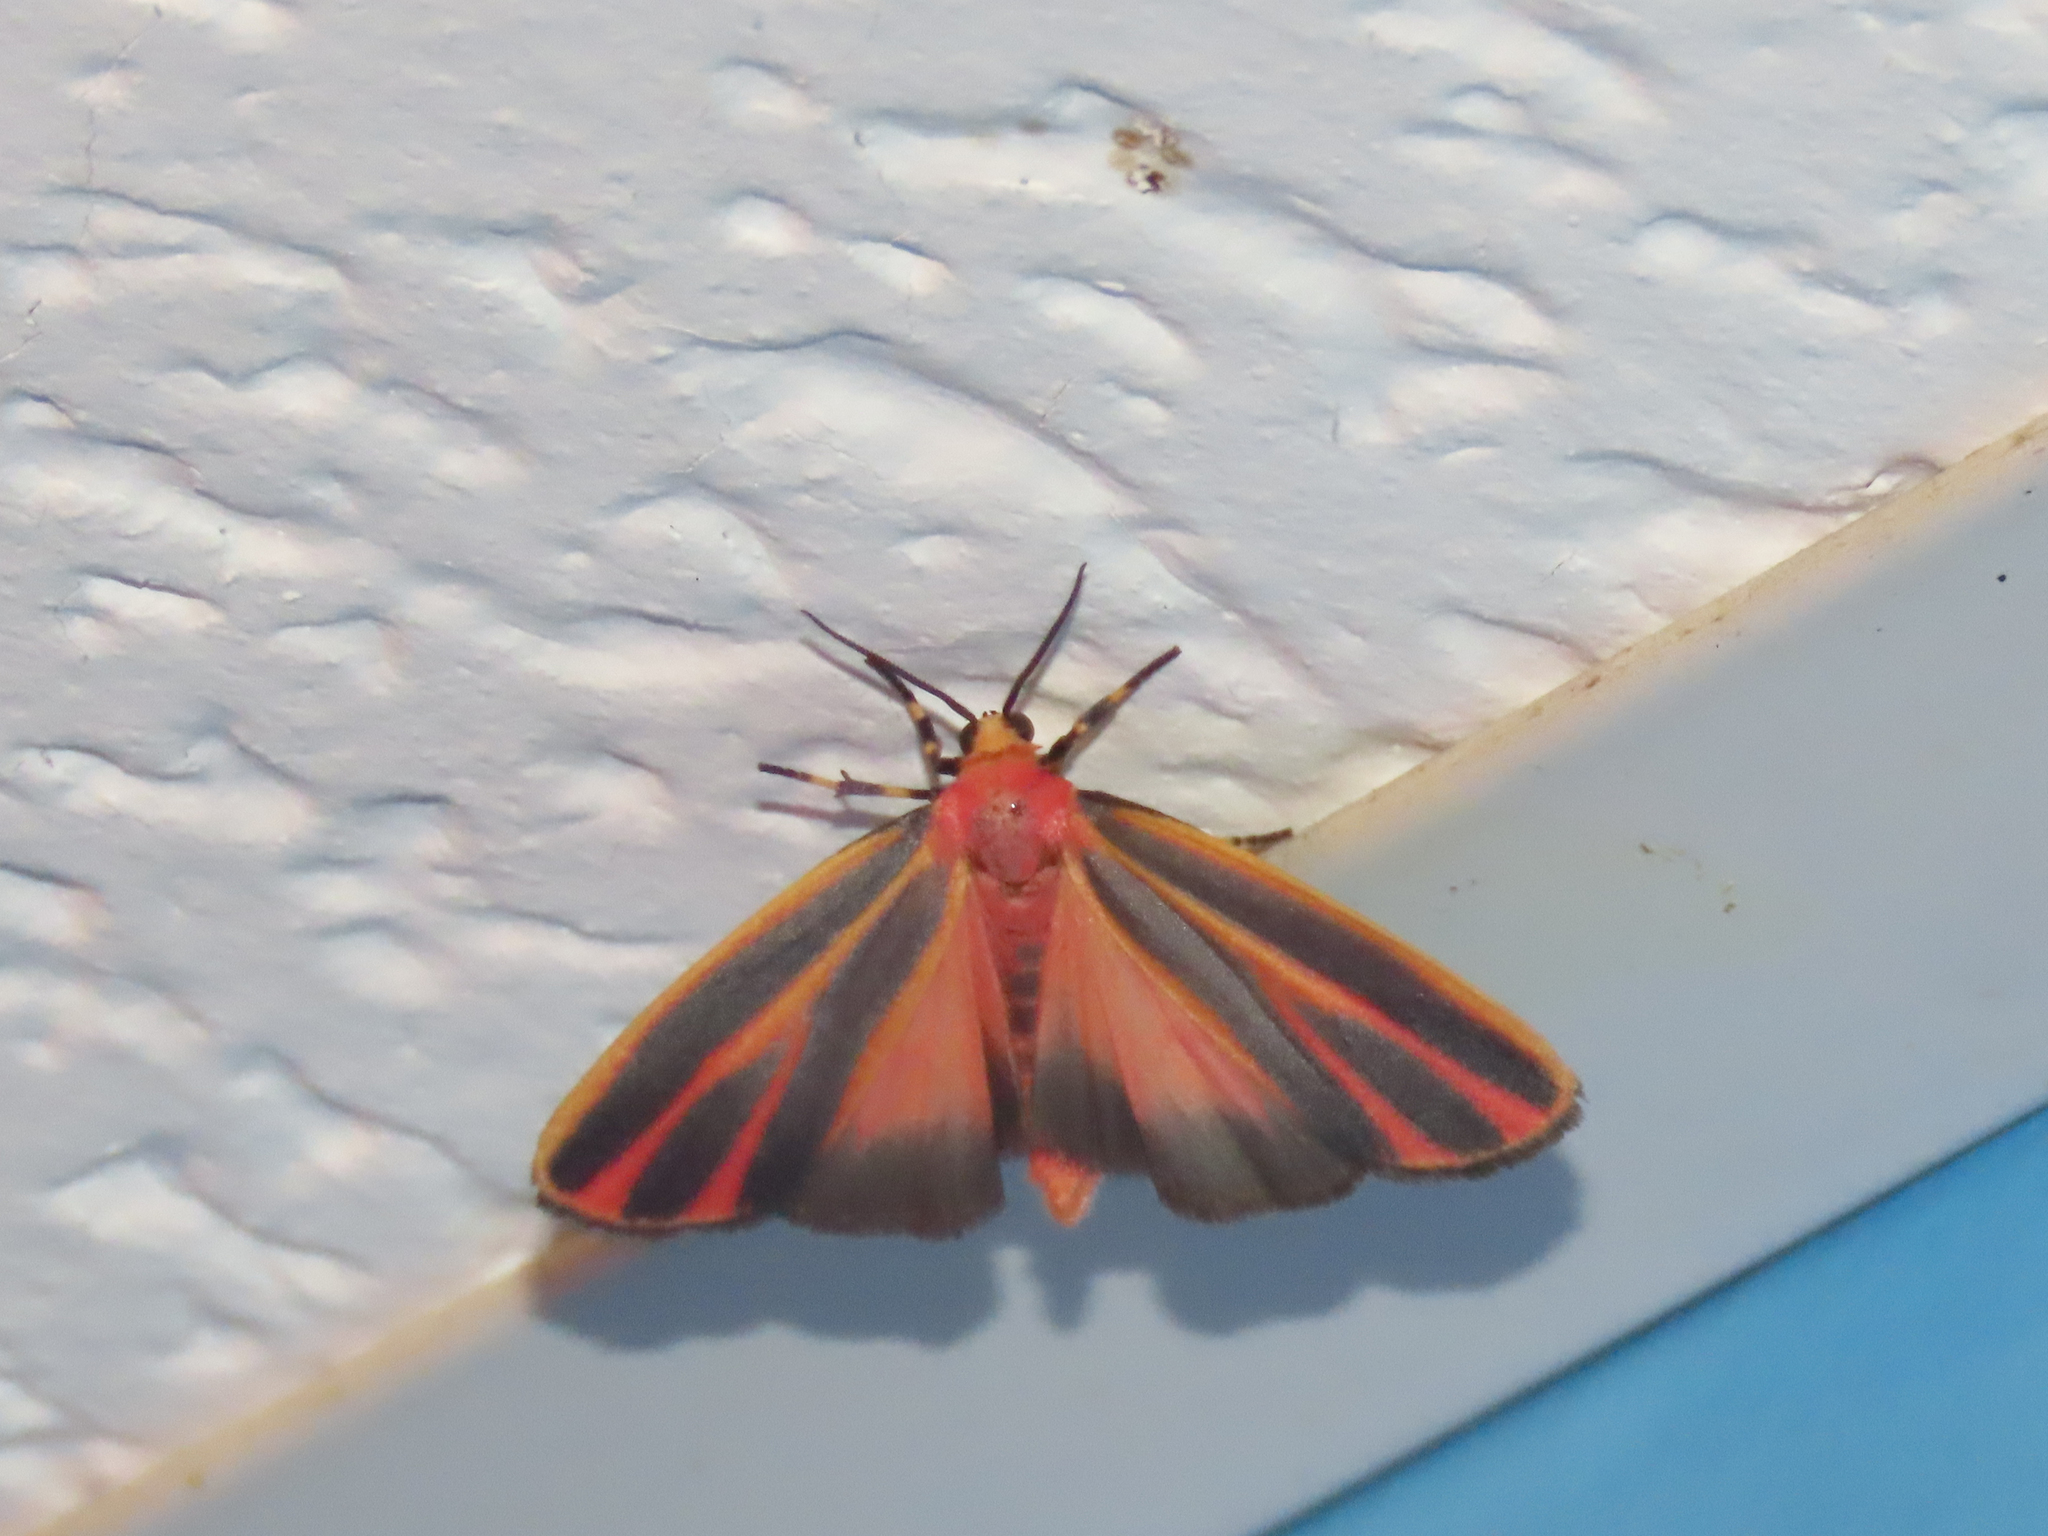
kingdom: Animalia
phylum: Arthropoda
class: Insecta
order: Lepidoptera
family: Erebidae
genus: Hypoprepia
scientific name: Hypoprepia fucosa
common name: Painted lichen moth
